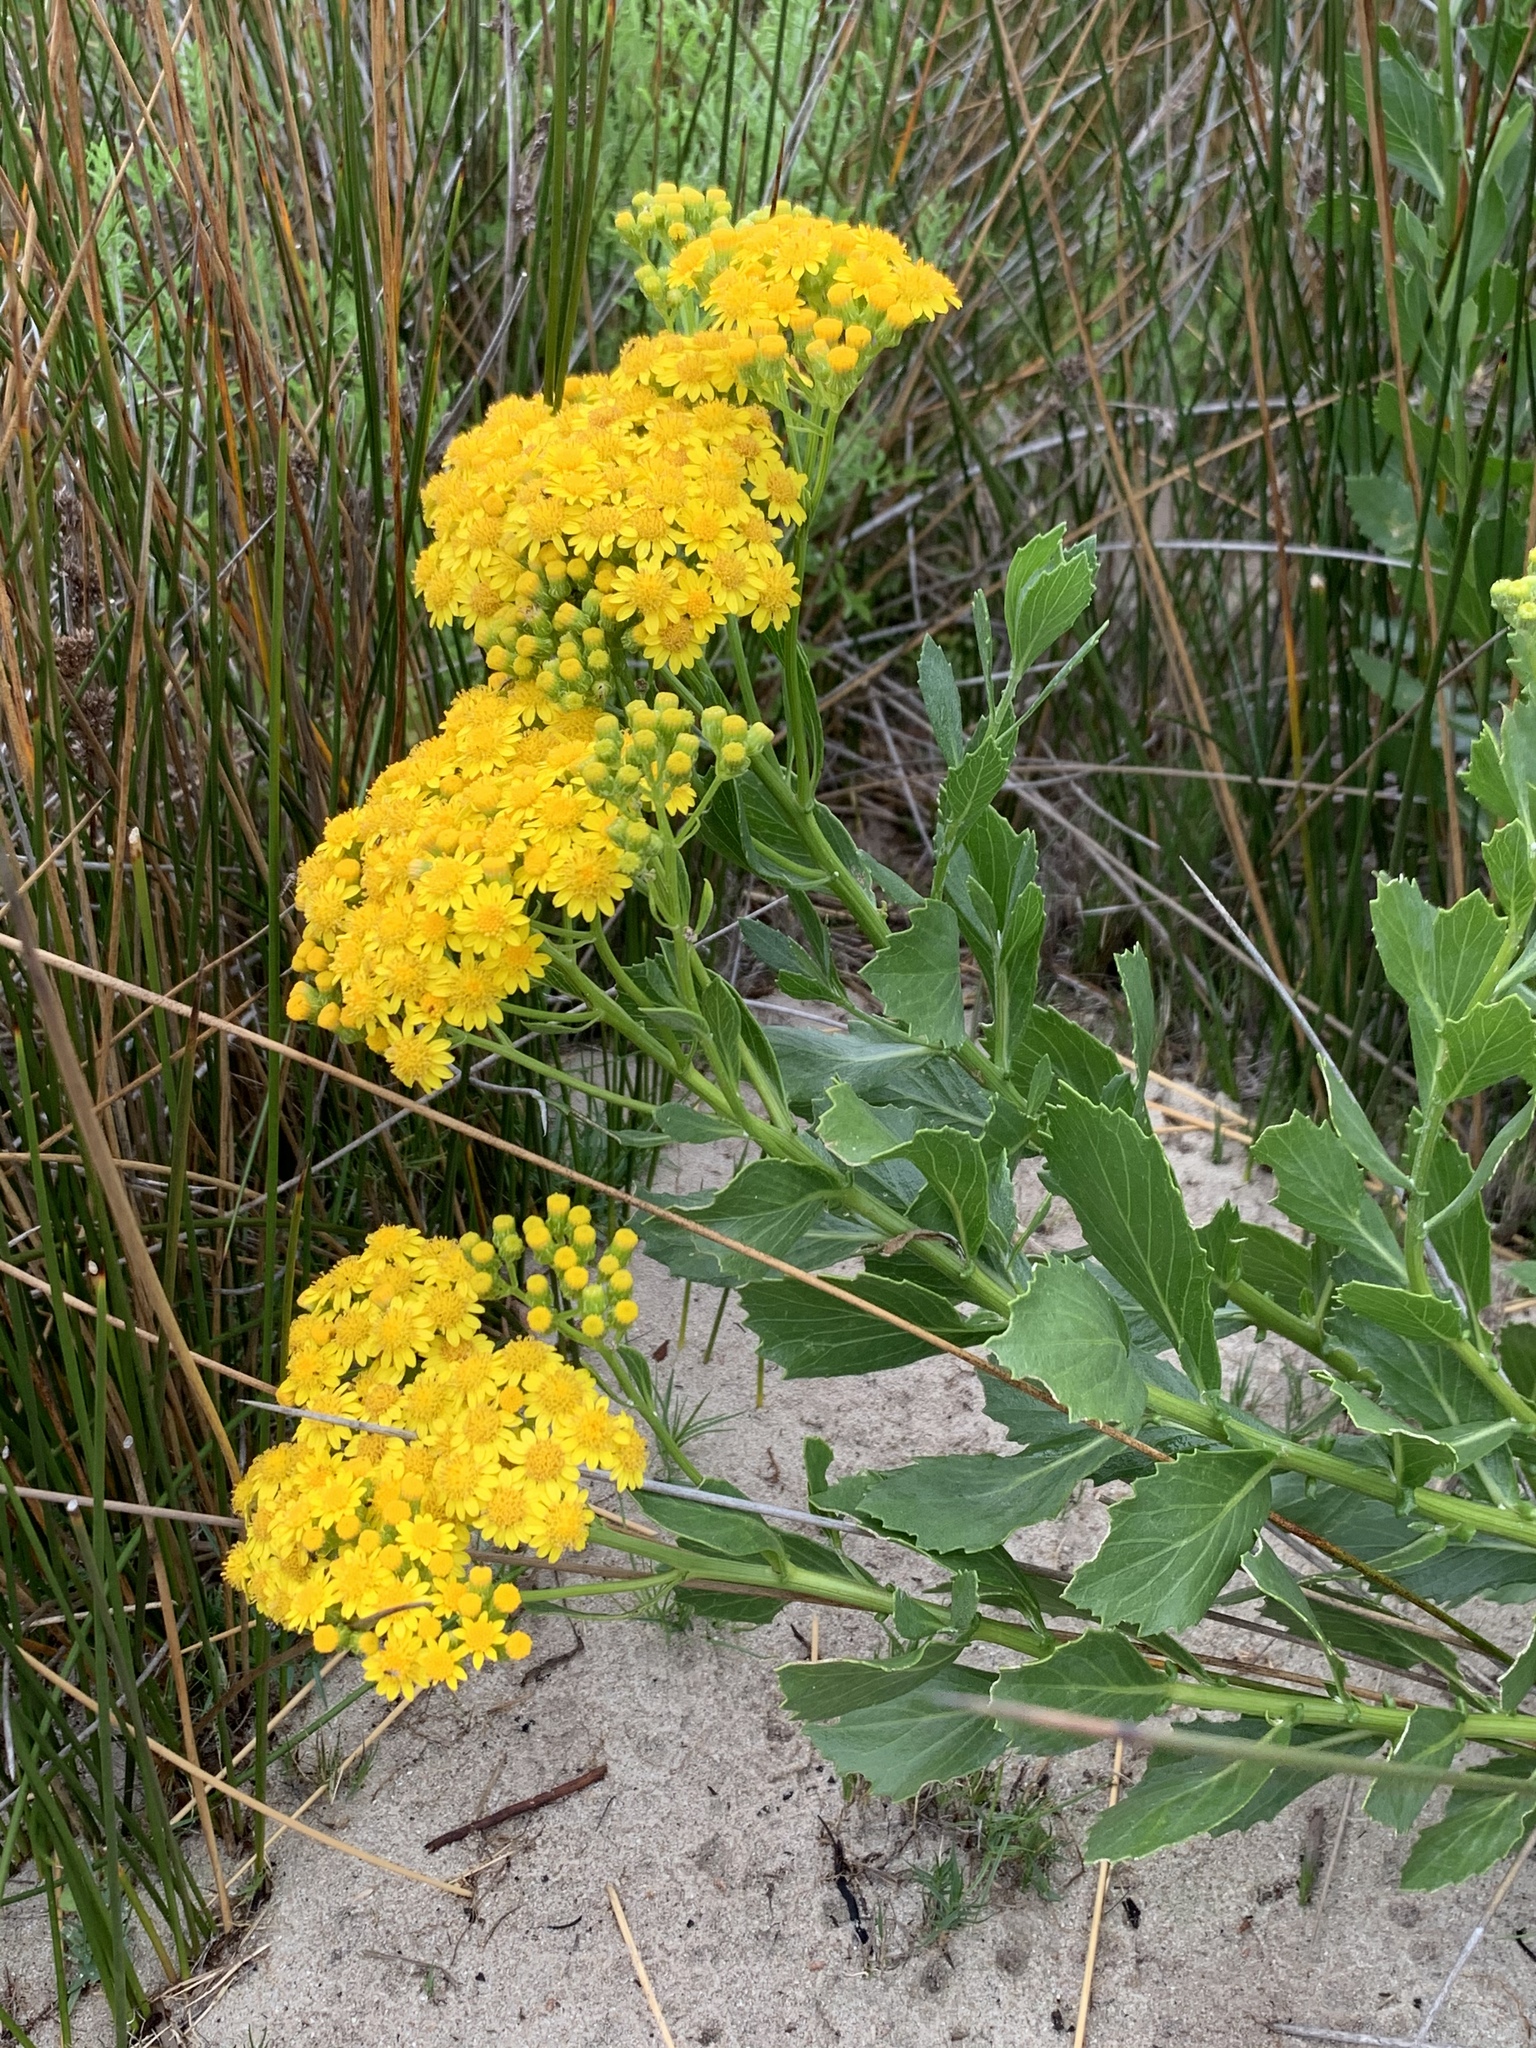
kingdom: Plantae
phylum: Tracheophyta
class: Magnoliopsida
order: Asterales
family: Asteraceae
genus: Senecio
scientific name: Senecio halimifolius
